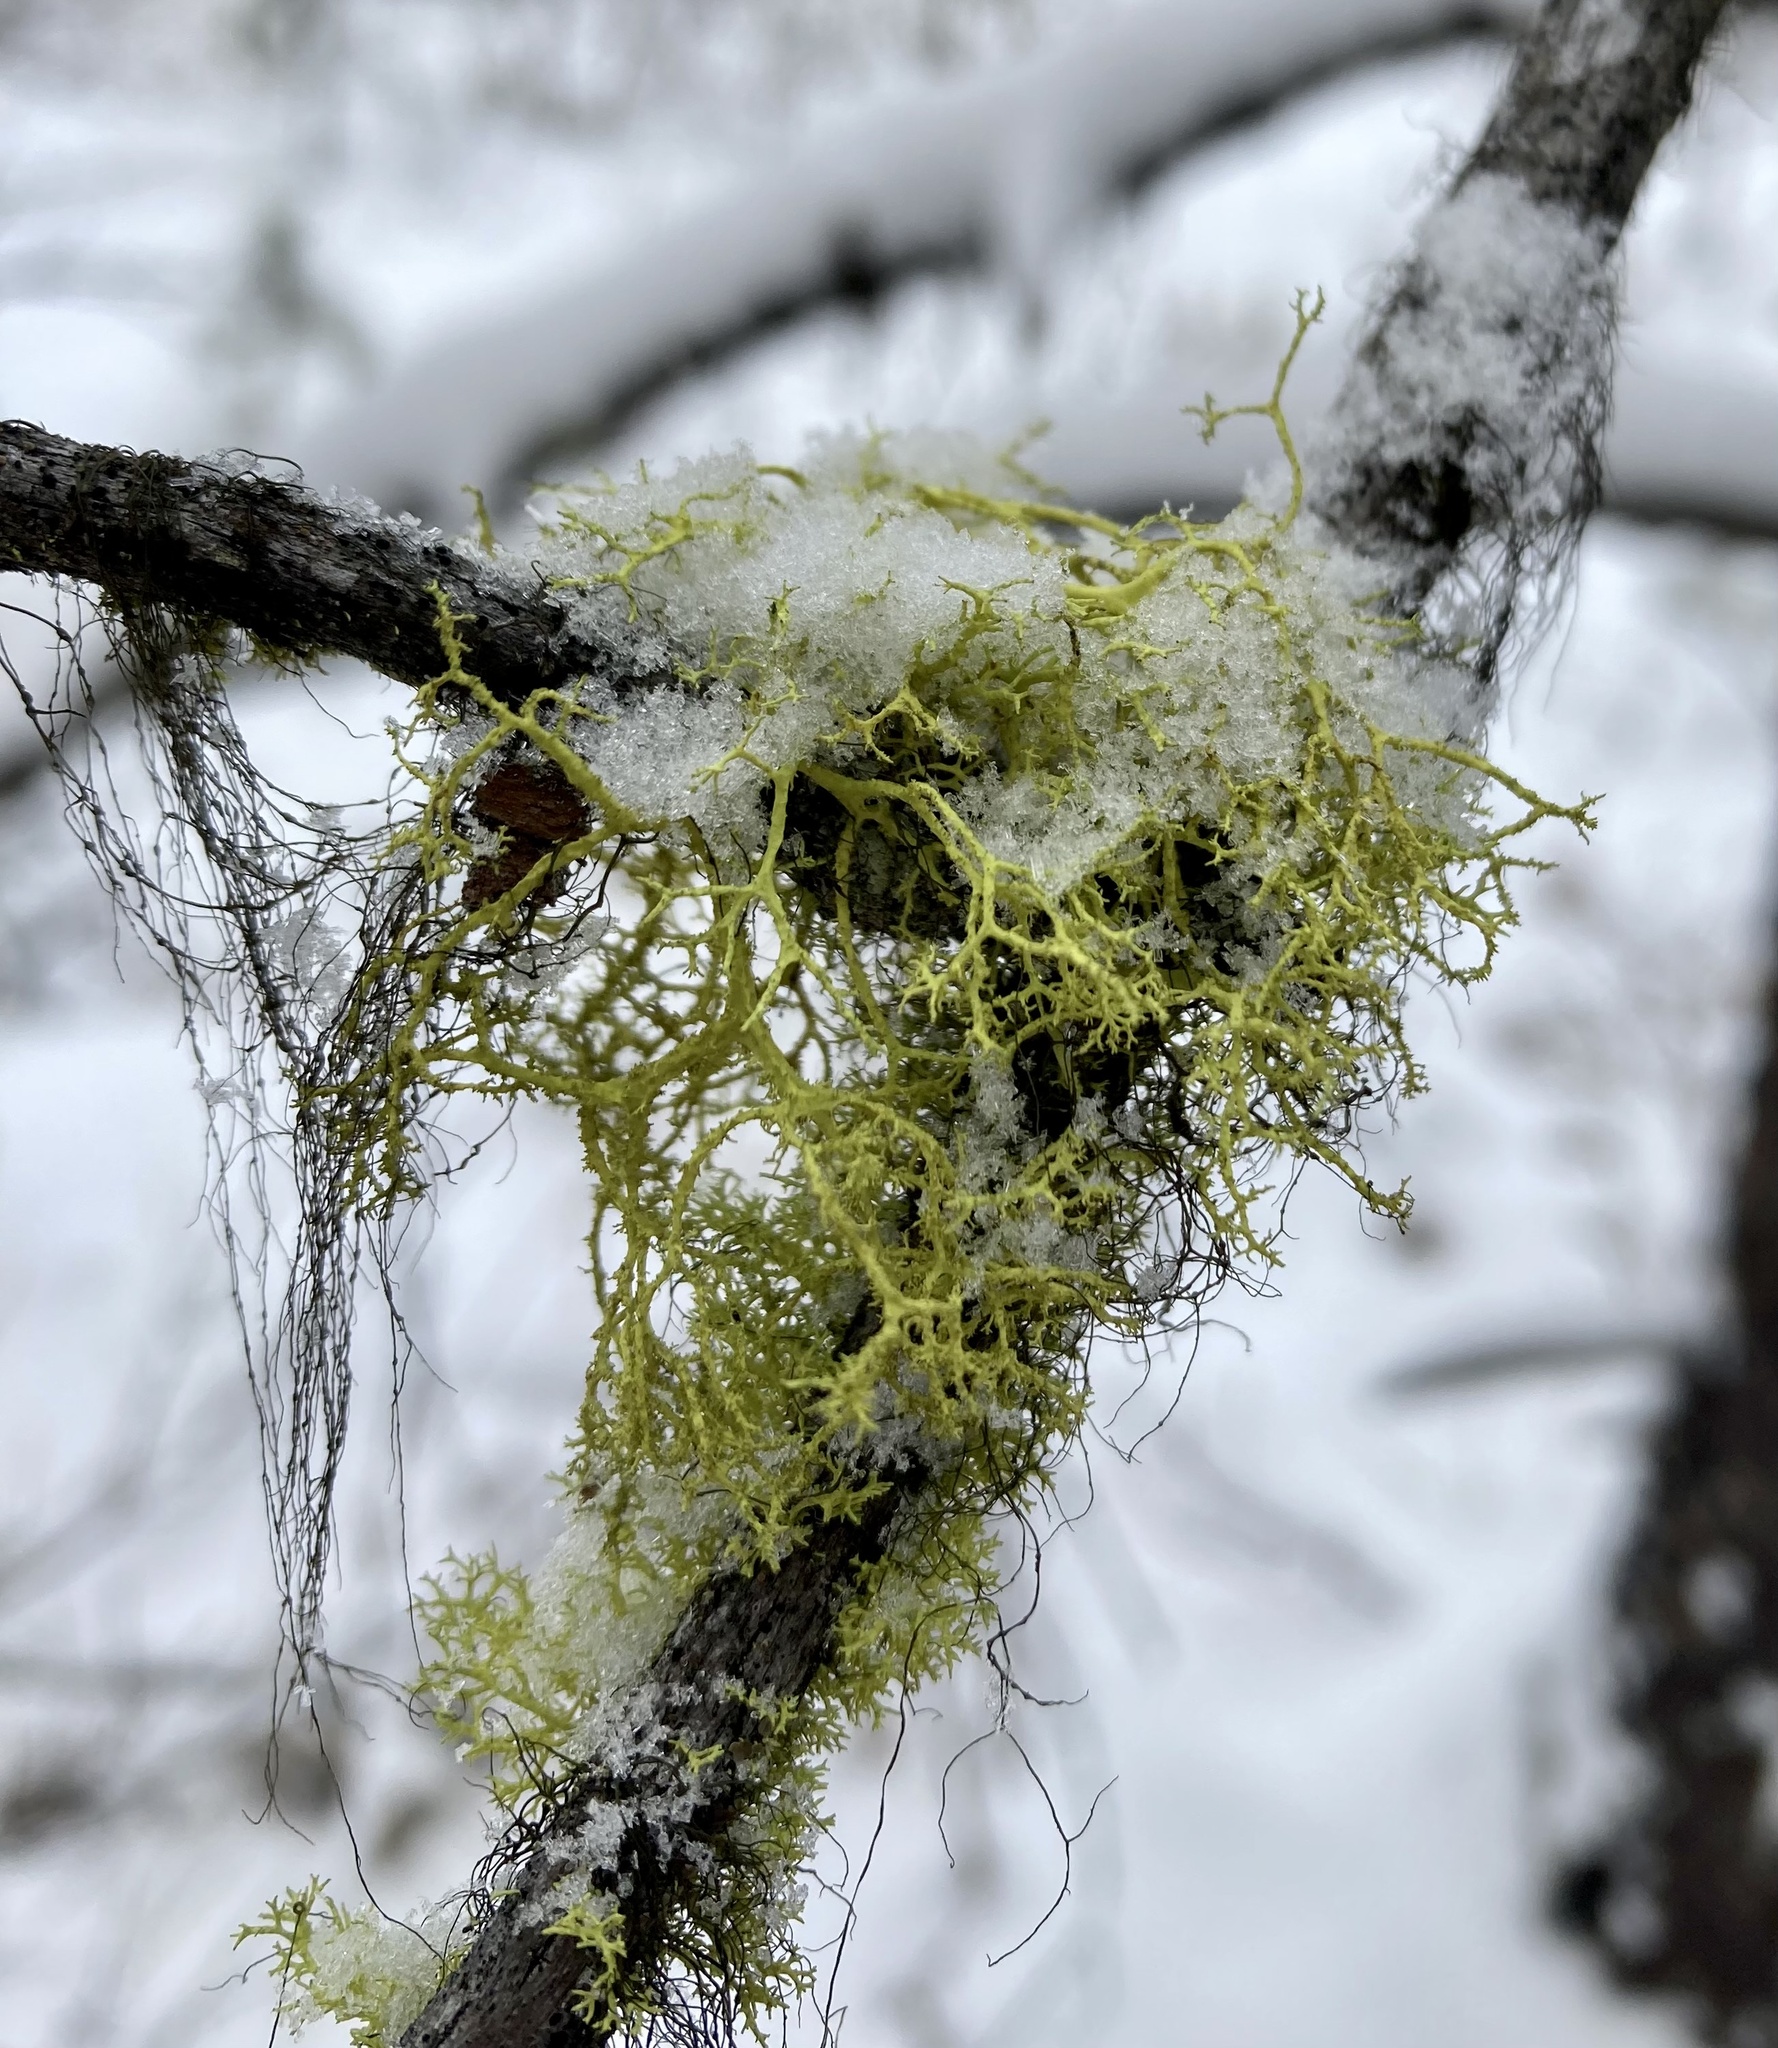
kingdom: Fungi
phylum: Ascomycota
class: Lecanoromycetes
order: Lecanorales
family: Parmeliaceae
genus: Letharia
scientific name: Letharia vulpina
